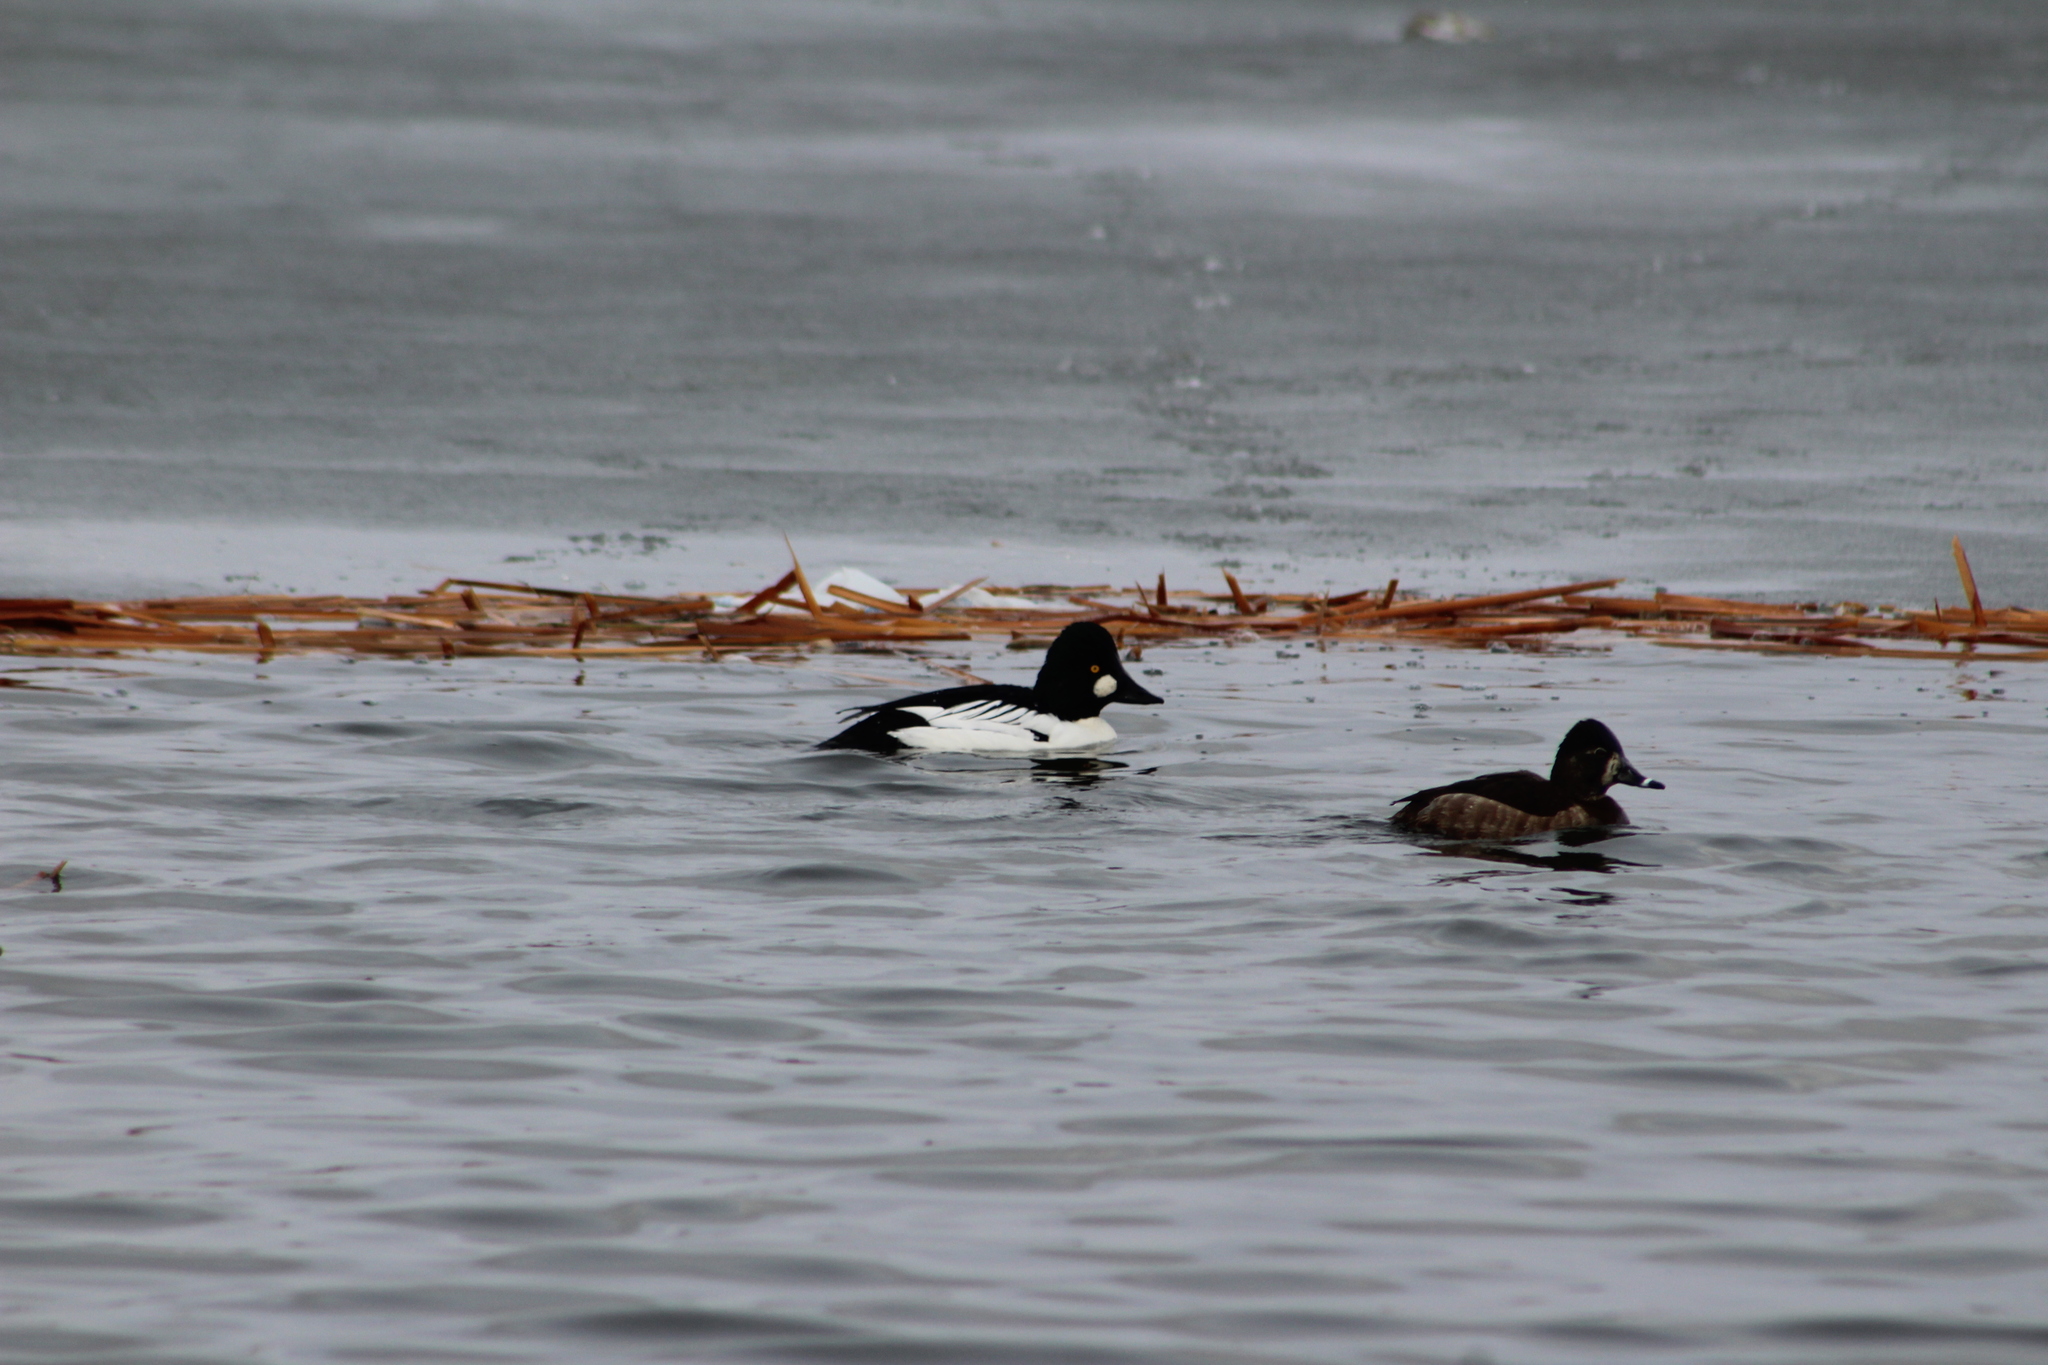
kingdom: Animalia
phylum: Chordata
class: Aves
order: Anseriformes
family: Anatidae
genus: Bucephala
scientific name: Bucephala clangula
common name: Common goldeneye
